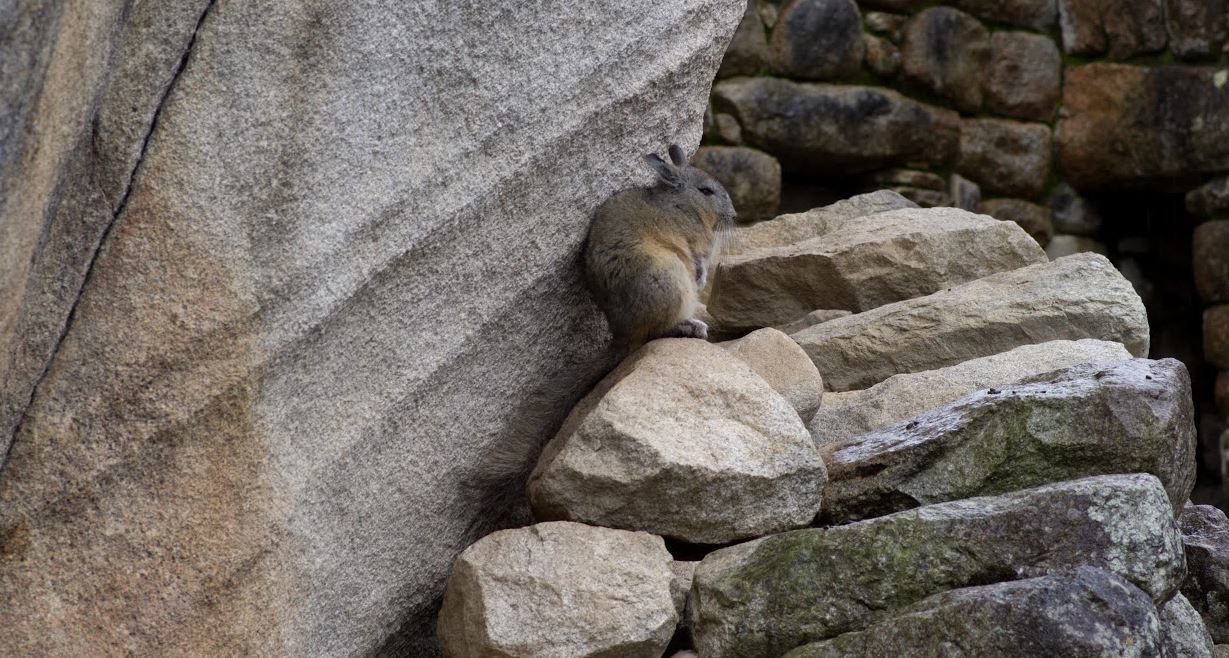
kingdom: Animalia
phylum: Chordata
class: Mammalia
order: Rodentia
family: Chinchillidae
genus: Lagidium
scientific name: Lagidium viscacia
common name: Southern viscacha
